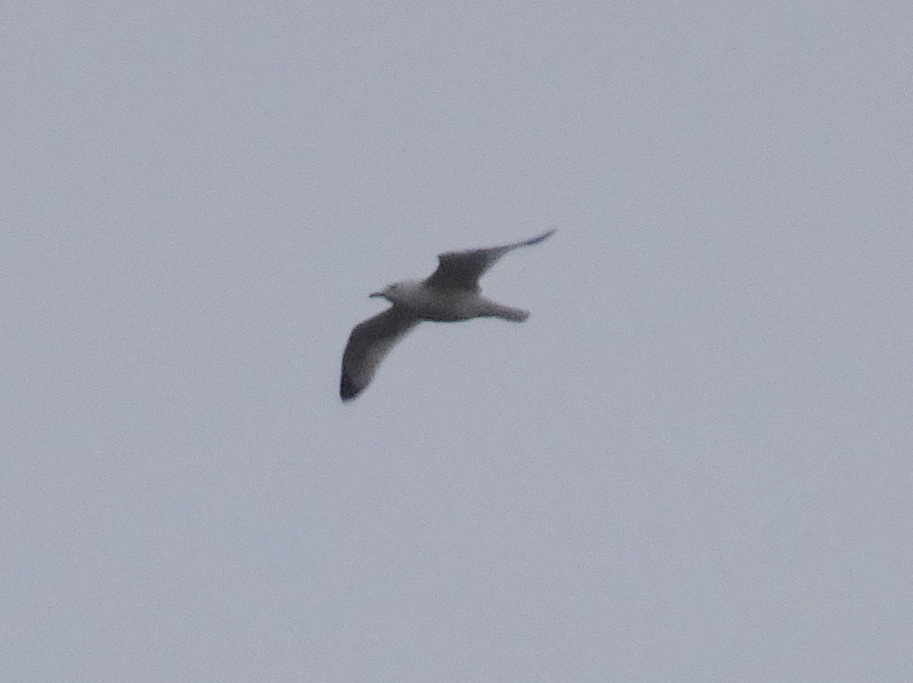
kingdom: Animalia
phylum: Chordata
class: Aves
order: Charadriiformes
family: Laridae
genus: Larus
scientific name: Larus delawarensis
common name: Ring-billed gull
